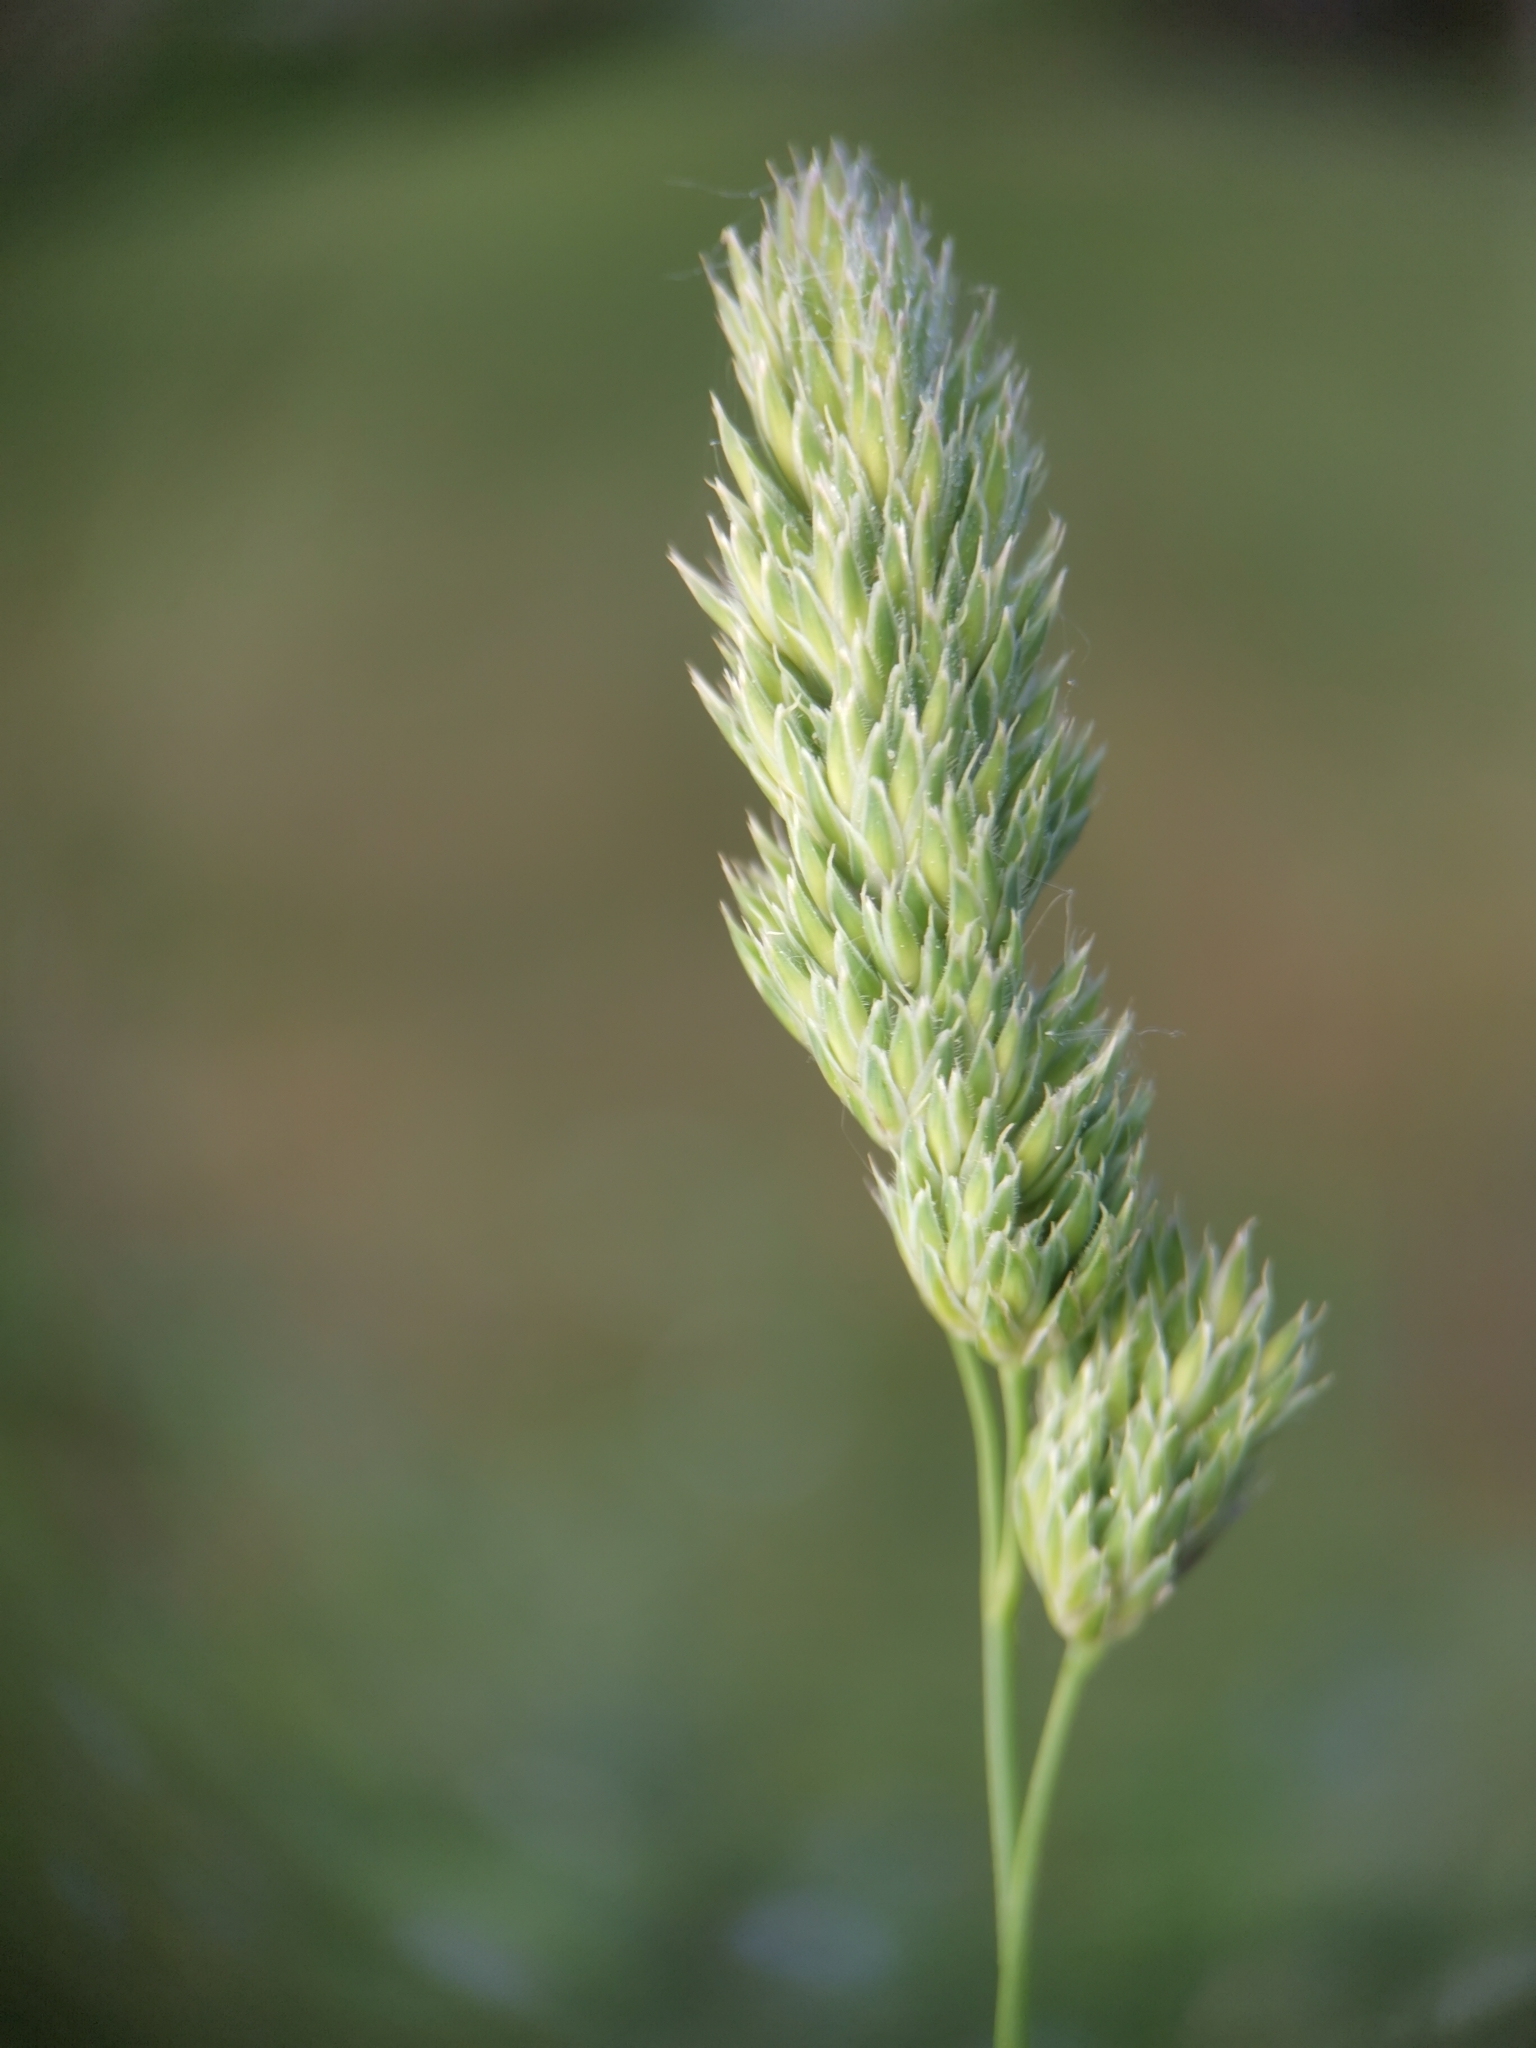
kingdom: Plantae
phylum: Tracheophyta
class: Liliopsida
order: Poales
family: Poaceae
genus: Dactylis
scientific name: Dactylis glomerata
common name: Orchardgrass
